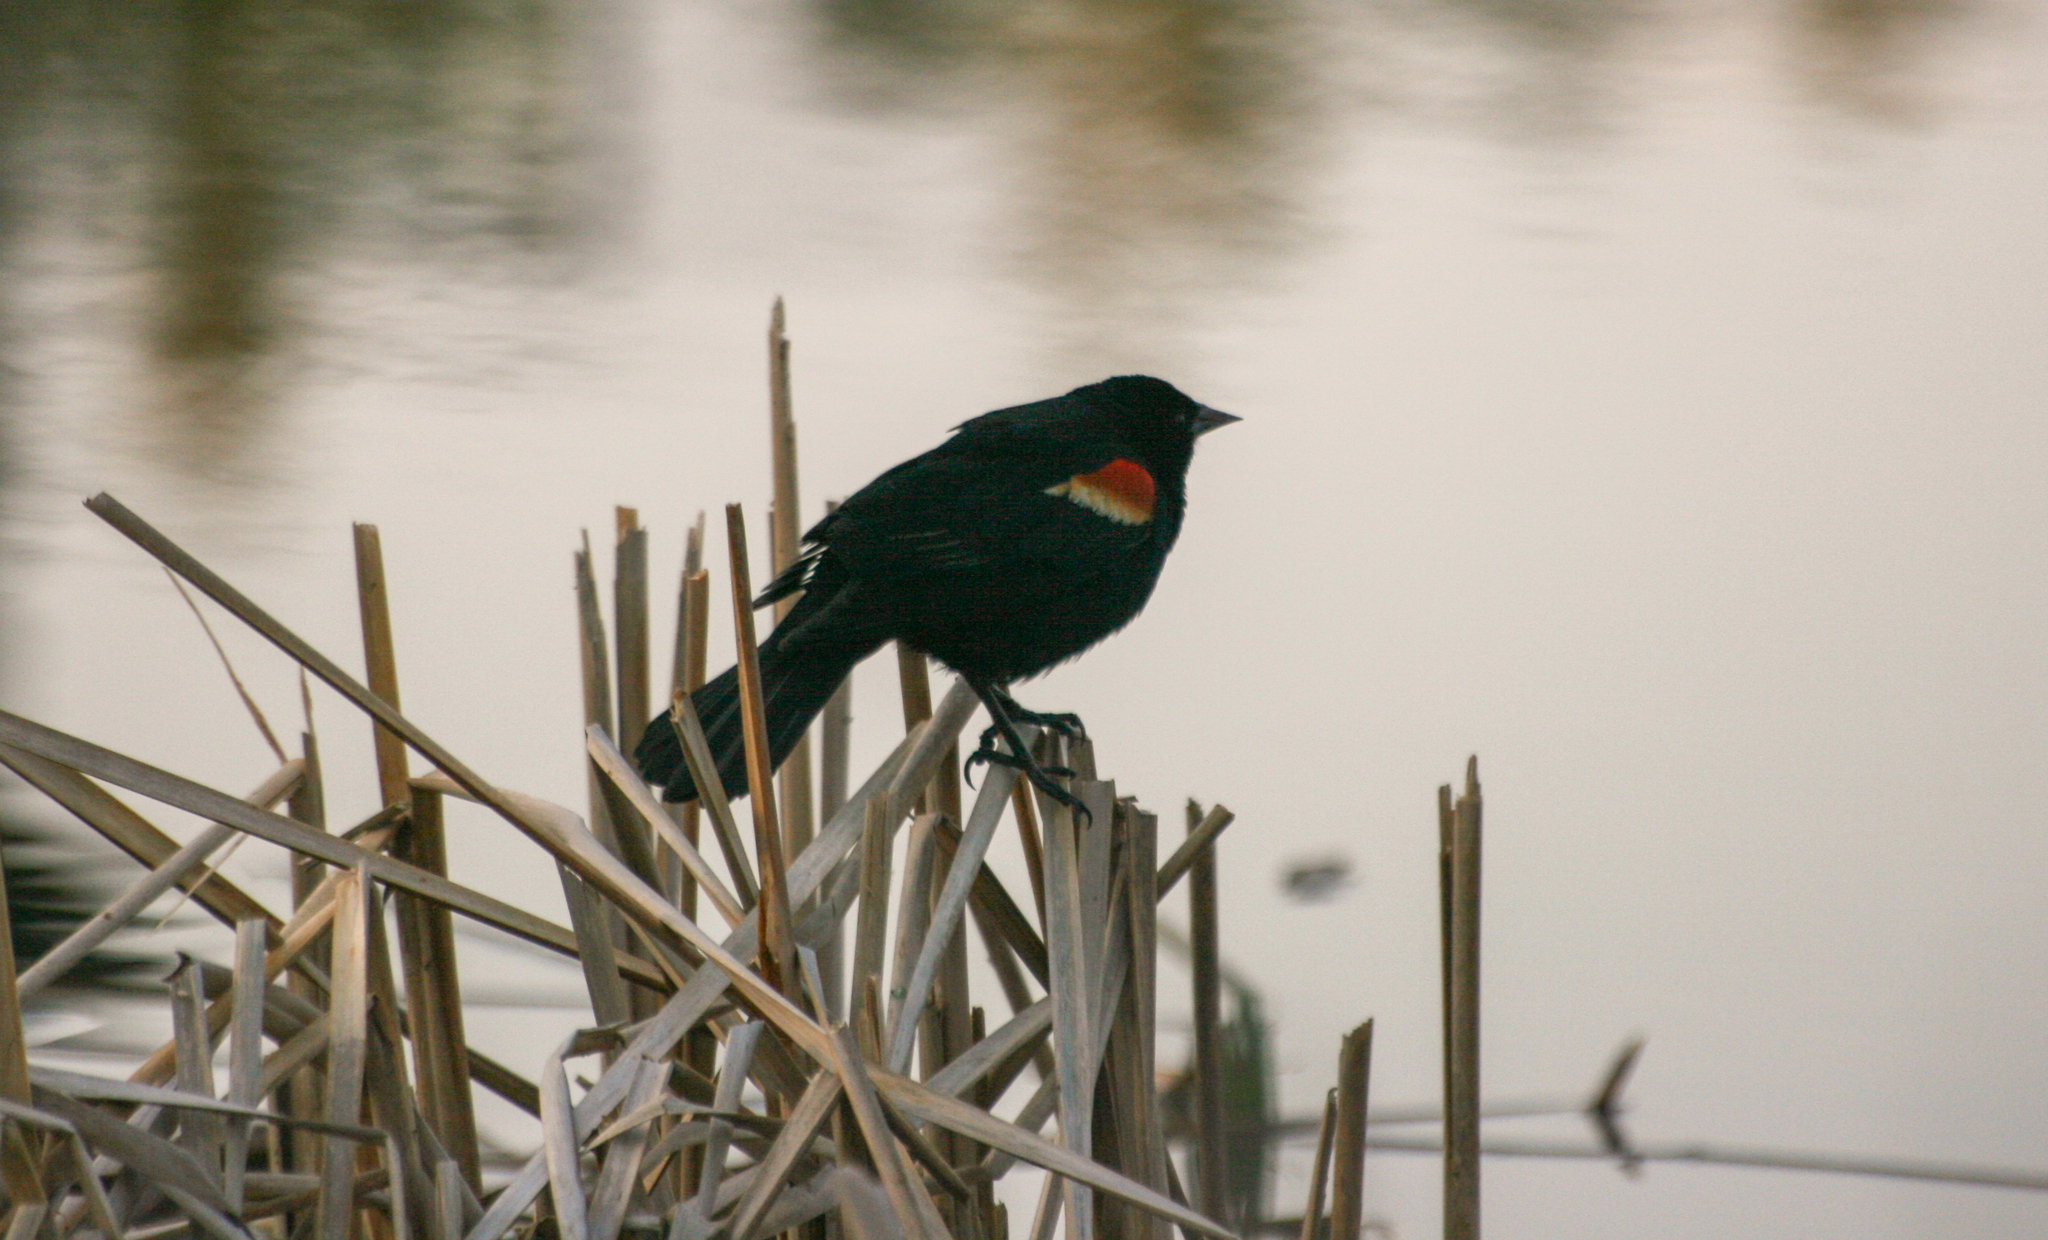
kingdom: Animalia
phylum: Chordata
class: Aves
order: Passeriformes
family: Icteridae
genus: Agelaius
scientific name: Agelaius phoeniceus
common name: Red-winged blackbird
